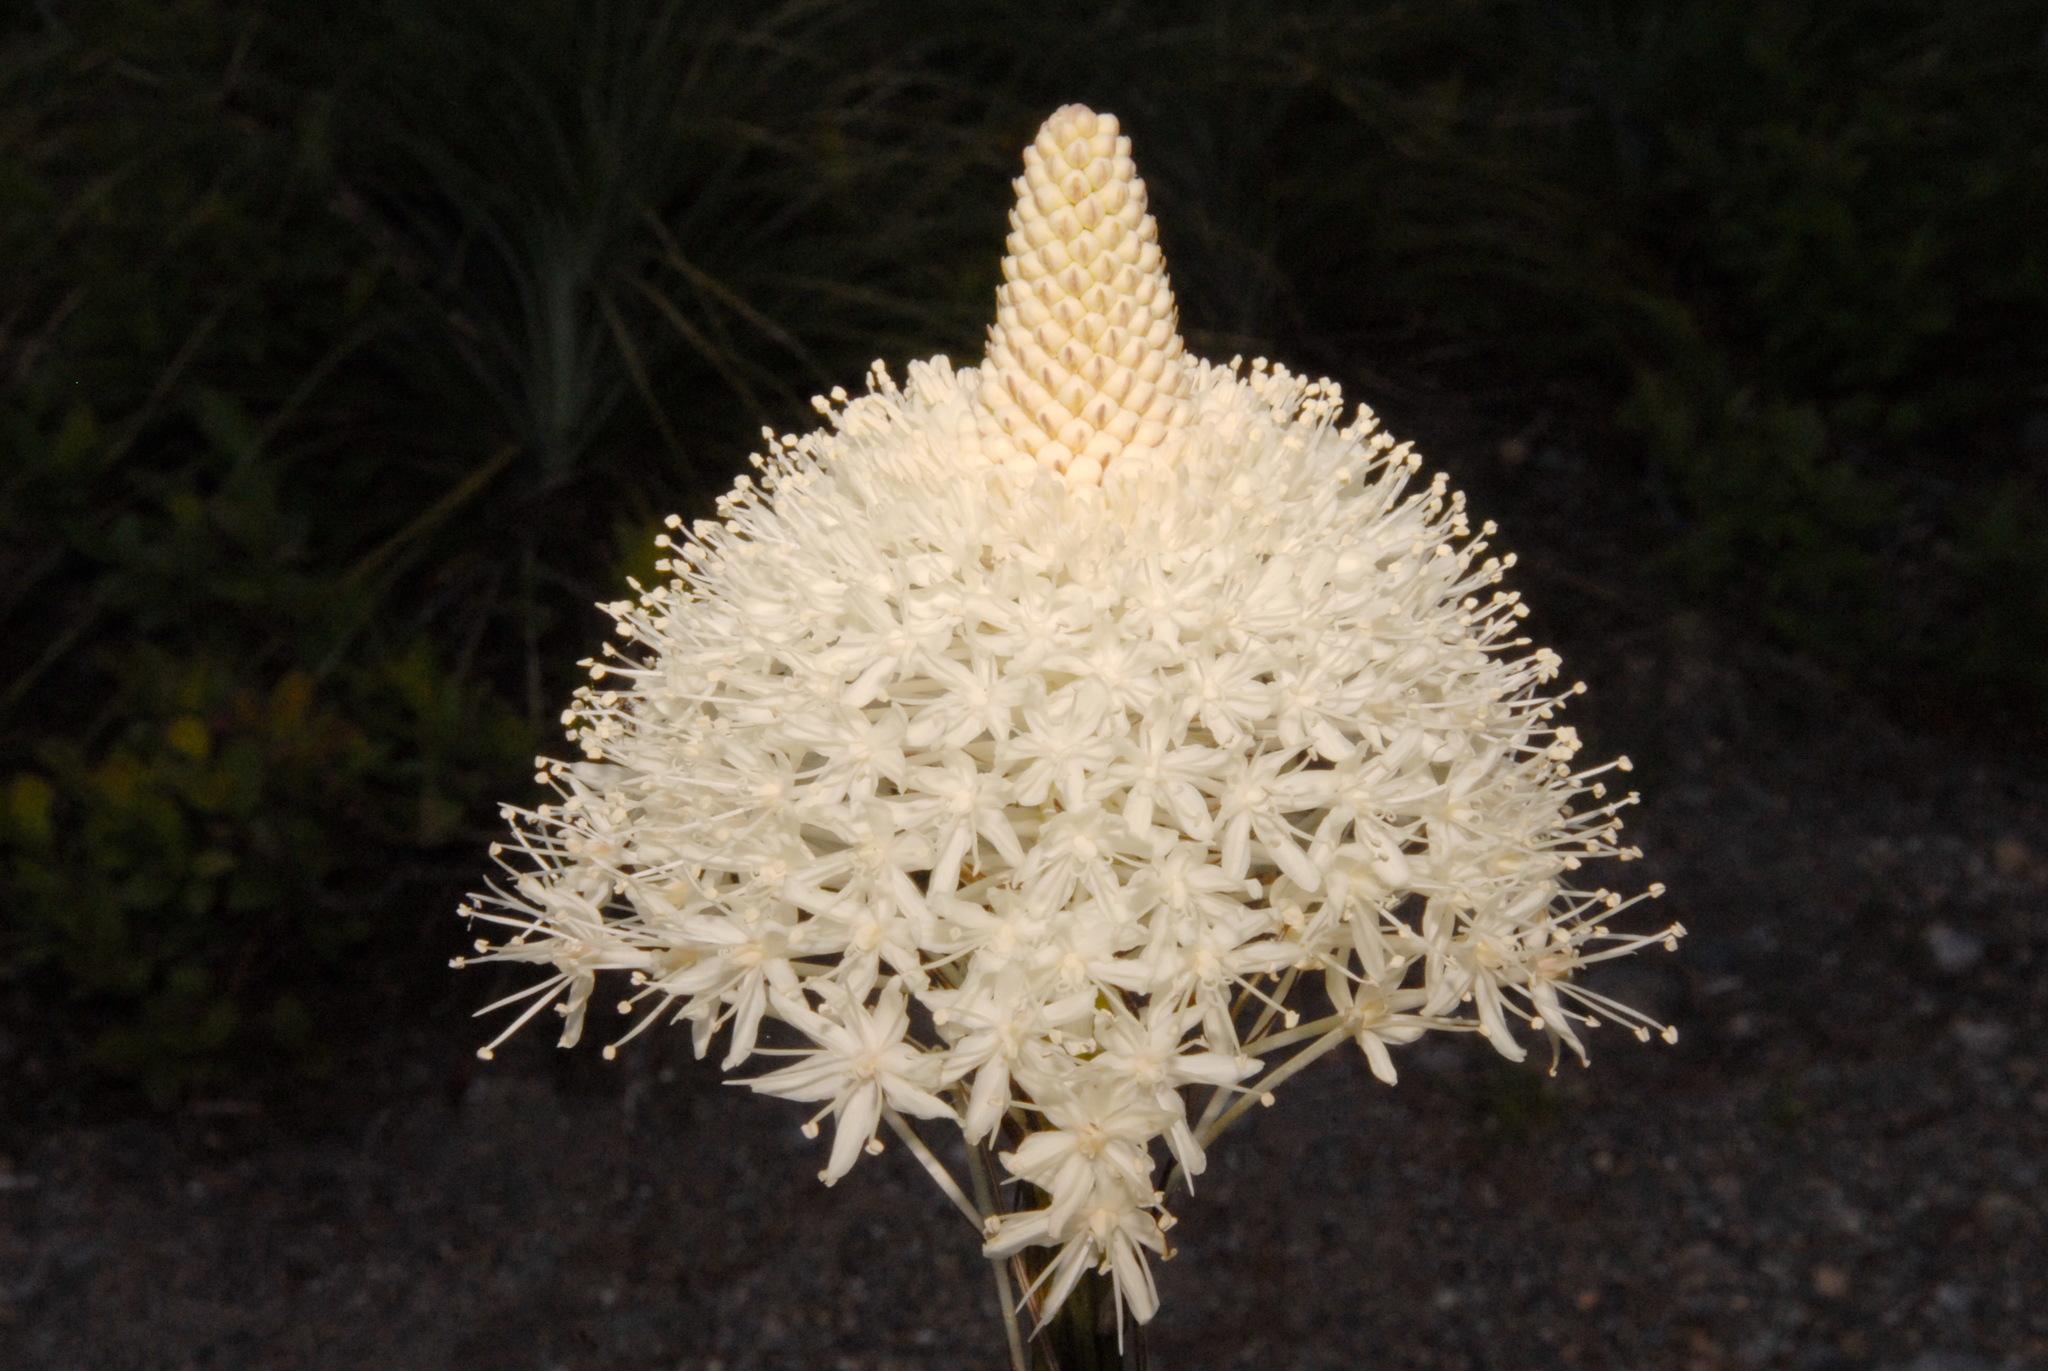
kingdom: Plantae
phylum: Tracheophyta
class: Liliopsida
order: Liliales
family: Melanthiaceae
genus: Xerophyllum
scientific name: Xerophyllum tenax
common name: Bear-grass
